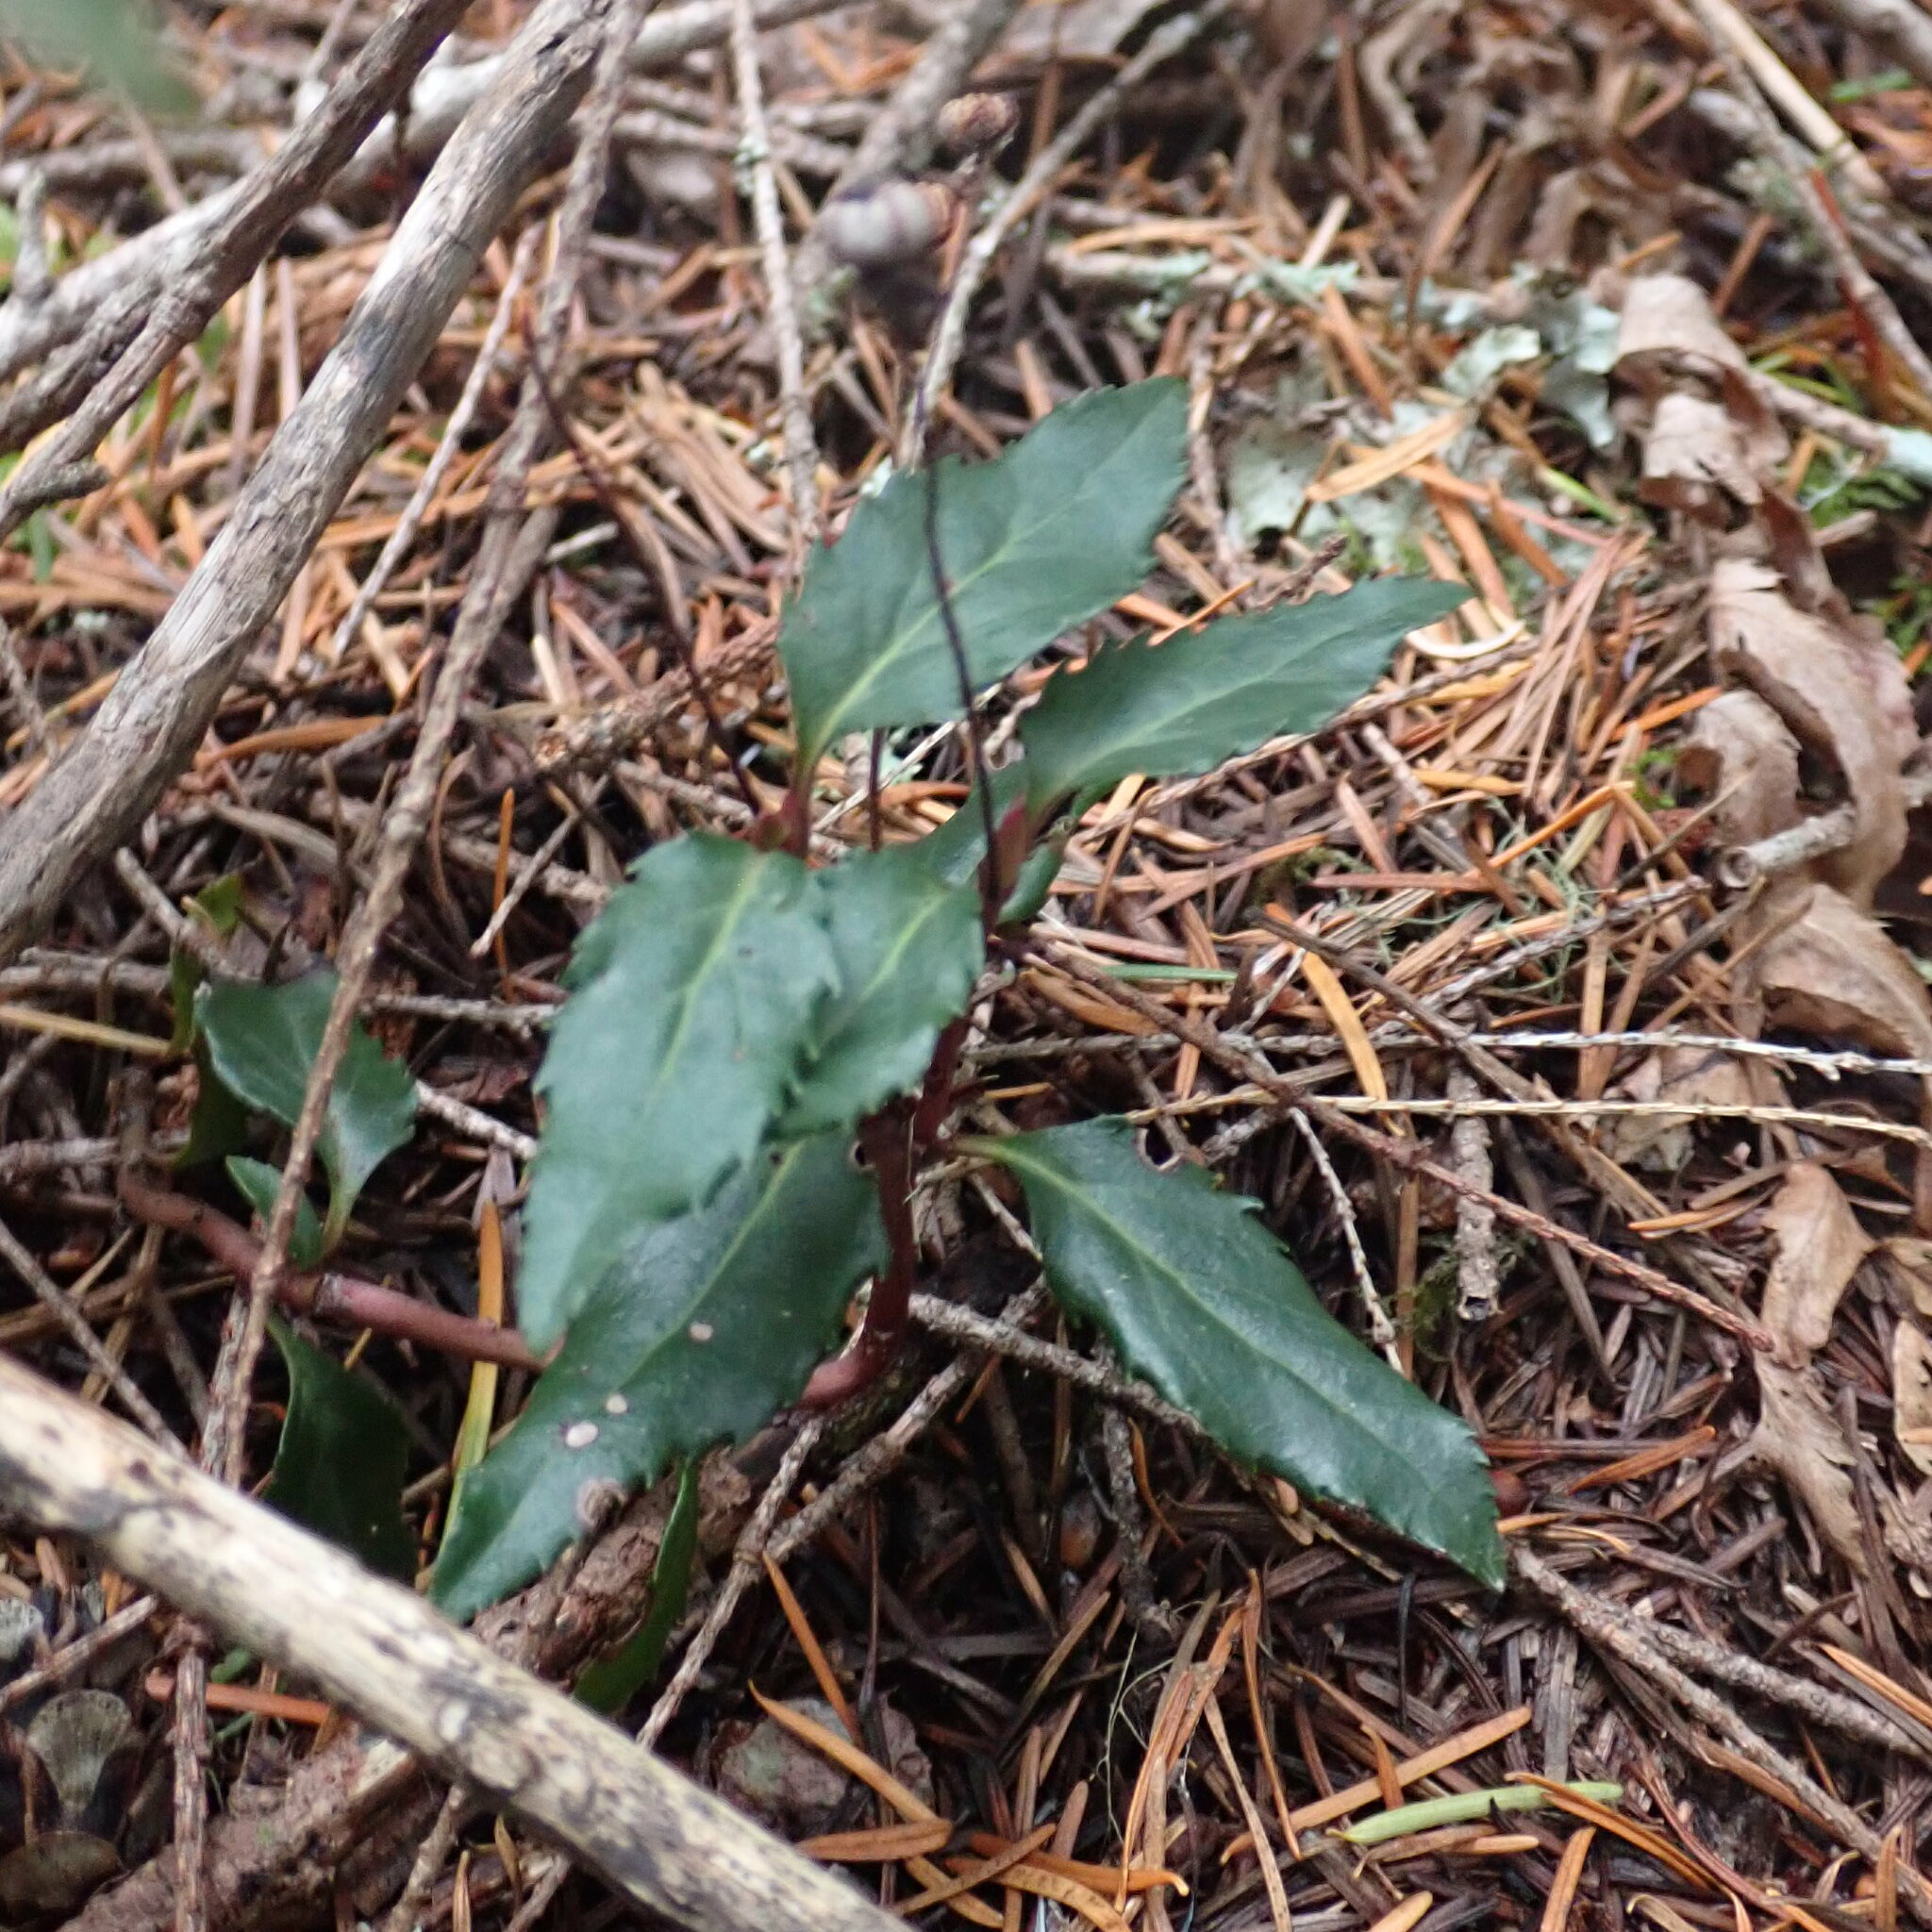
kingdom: Plantae
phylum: Tracheophyta
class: Magnoliopsida
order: Ericales
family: Ericaceae
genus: Chimaphila
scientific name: Chimaphila menziesii
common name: Menzies' pipsissewa
